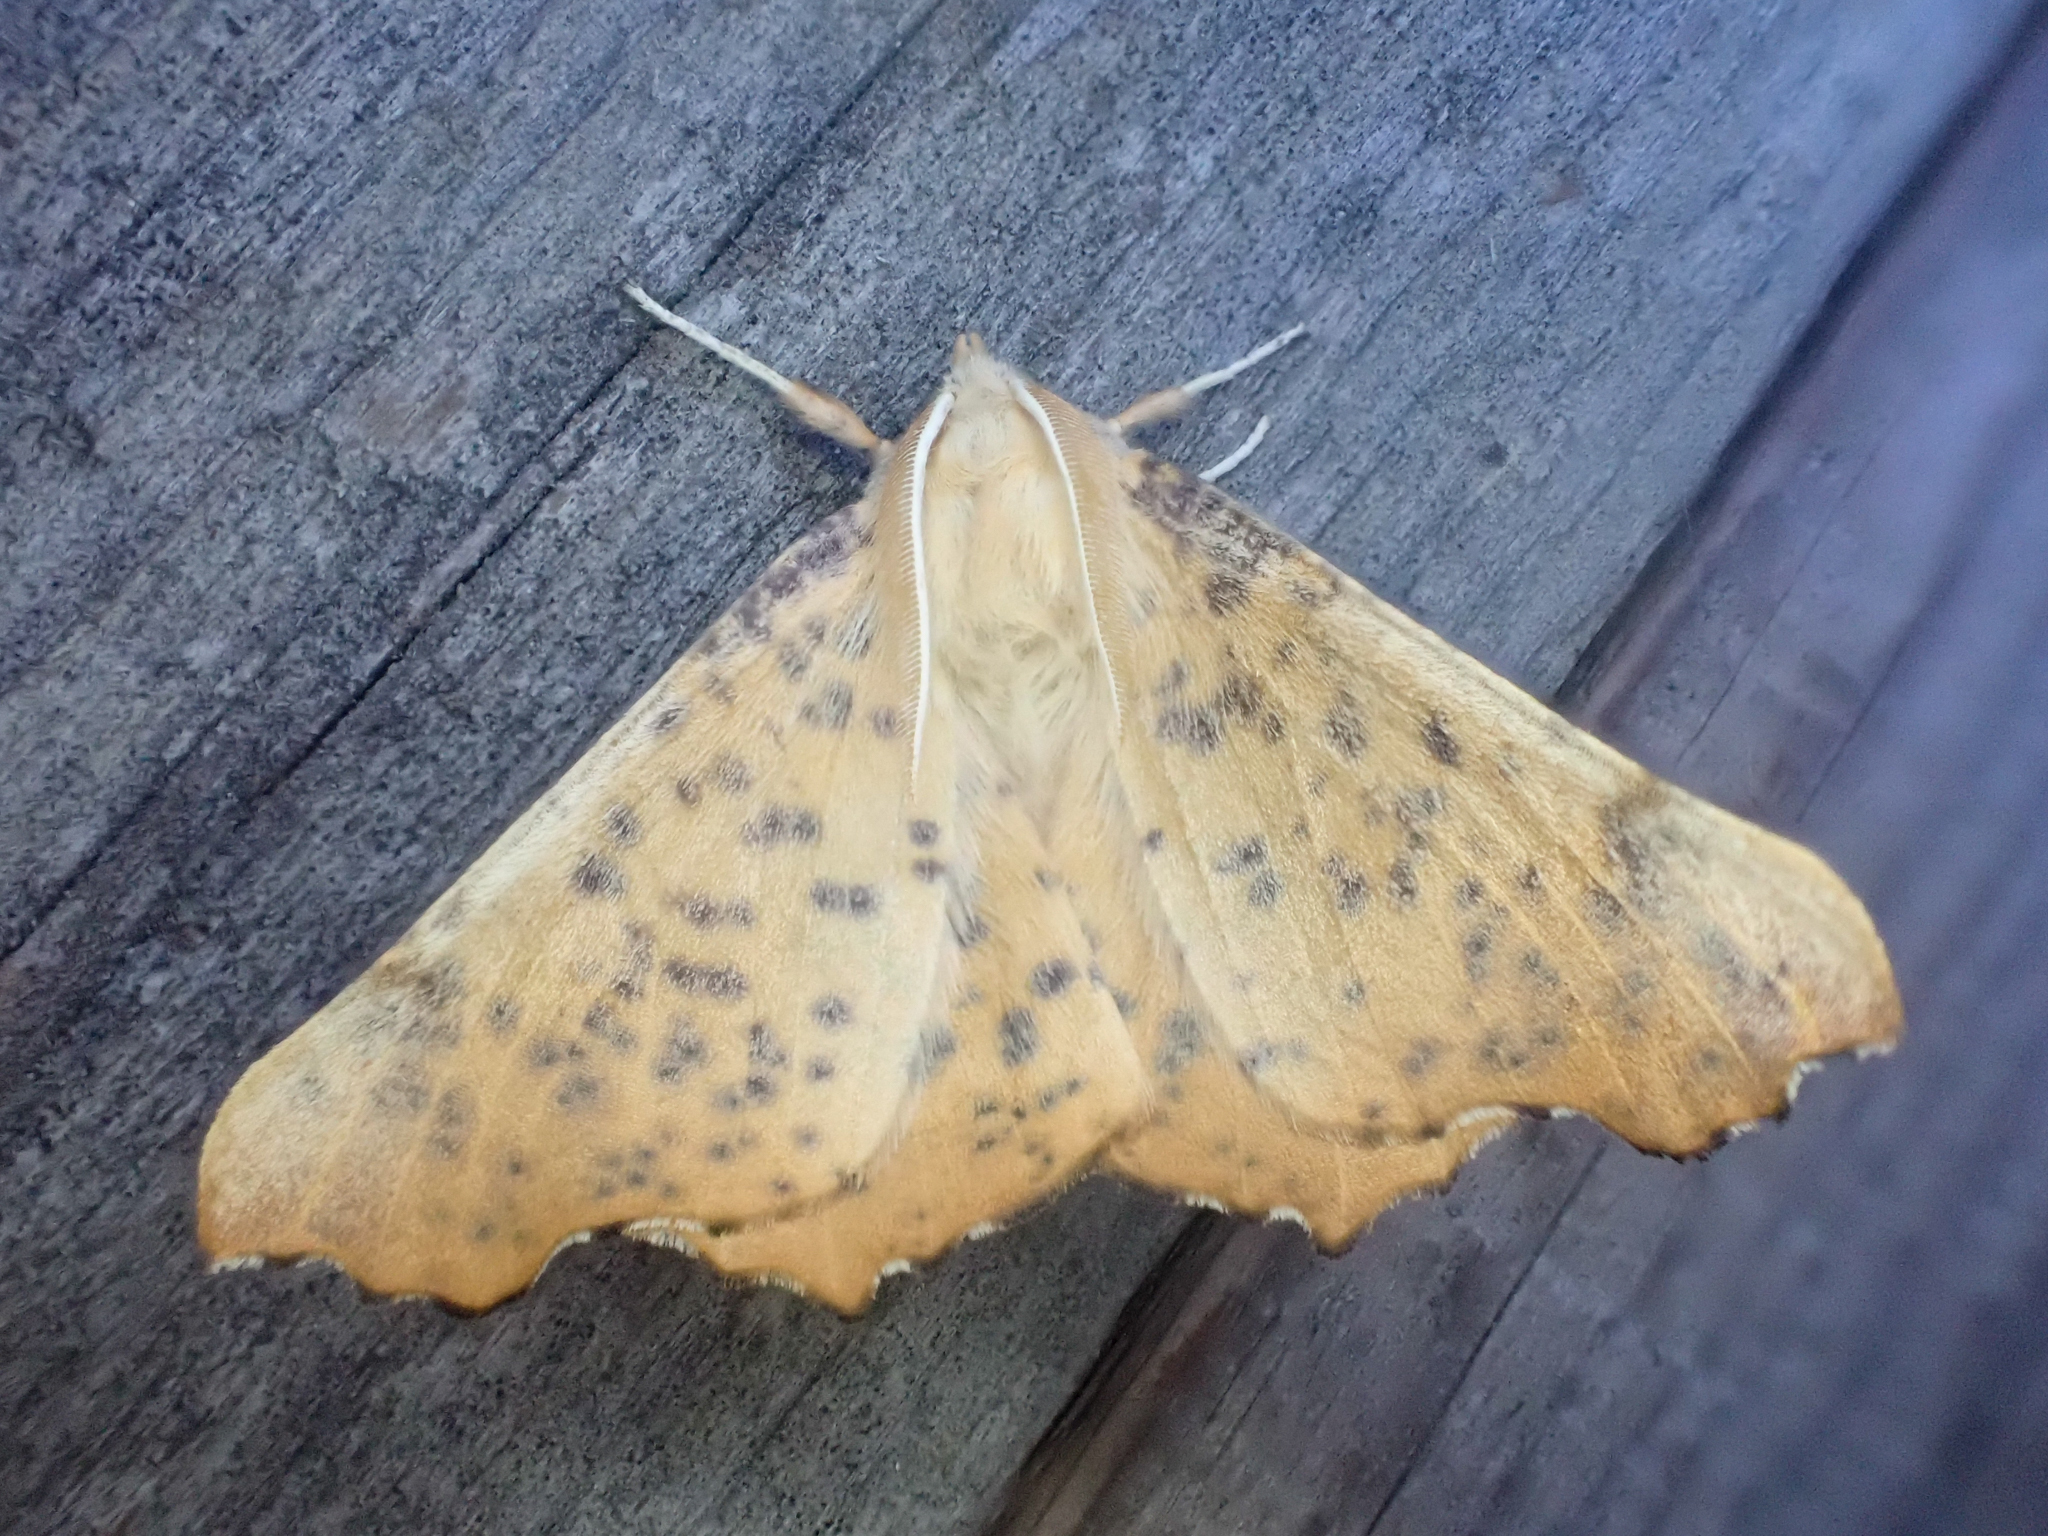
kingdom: Animalia
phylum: Arthropoda
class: Insecta
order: Lepidoptera
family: Geometridae
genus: Ennomos
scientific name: Ennomos magnaria
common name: Maple spanworm
